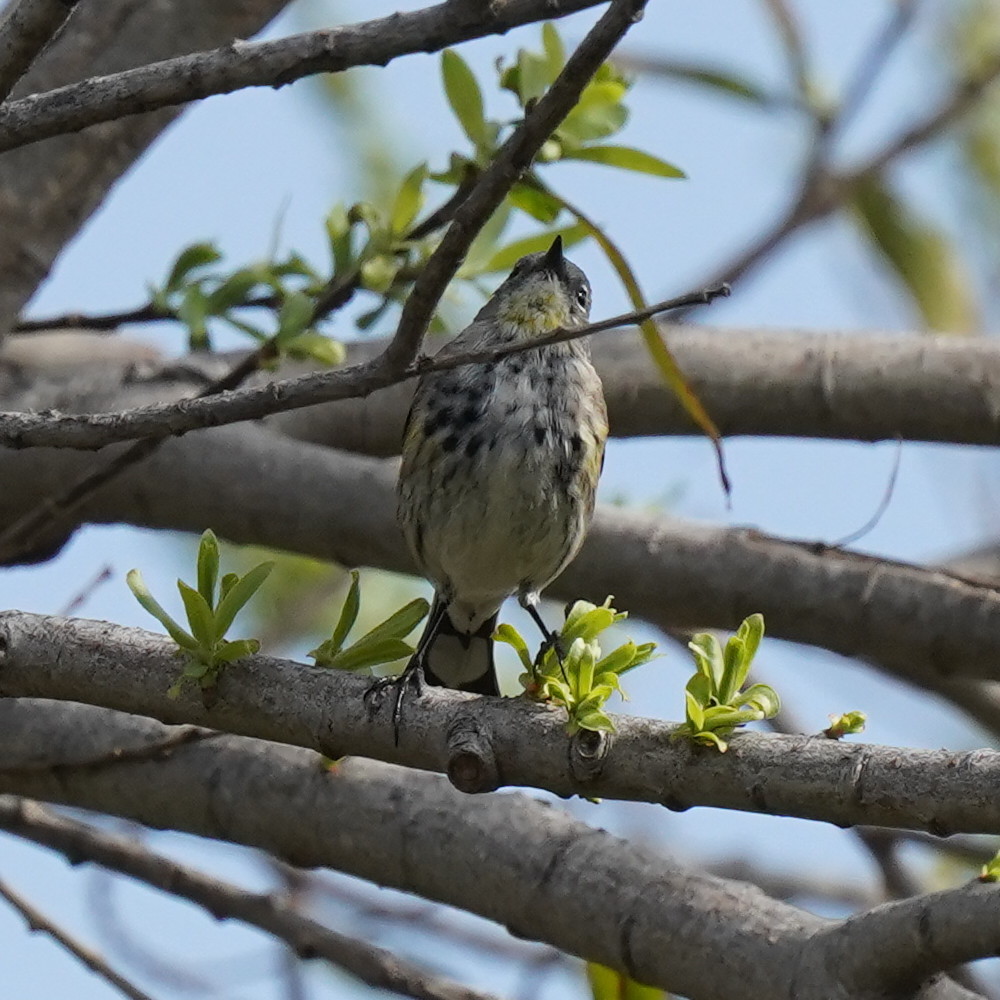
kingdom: Animalia
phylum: Chordata
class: Aves
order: Passeriformes
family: Parulidae
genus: Setophaga
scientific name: Setophaga coronata
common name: Myrtle warbler
